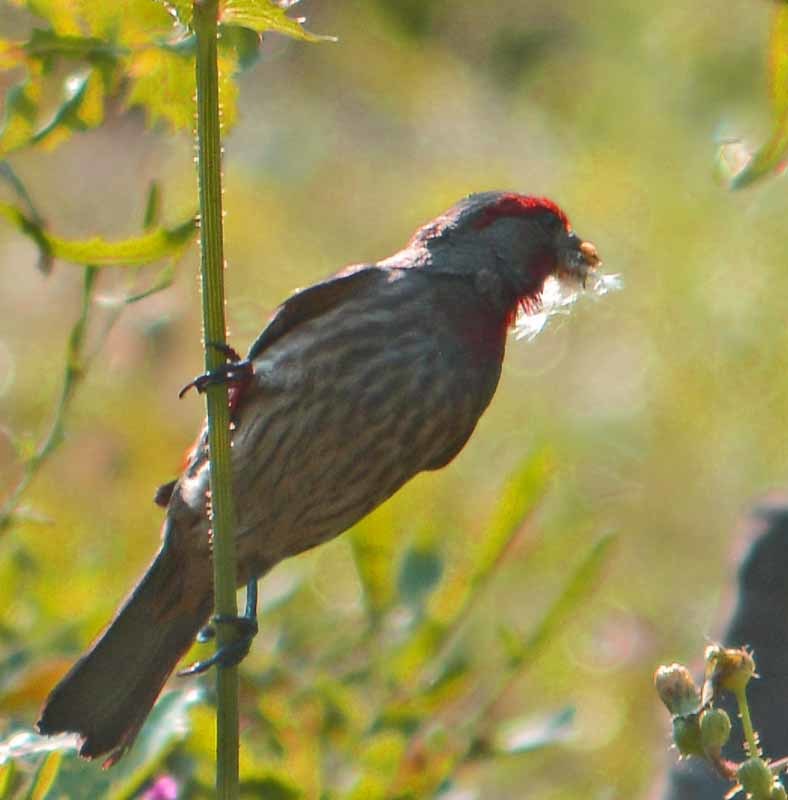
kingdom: Animalia
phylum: Chordata
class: Aves
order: Passeriformes
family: Fringillidae
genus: Haemorhous
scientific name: Haemorhous mexicanus
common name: House finch
